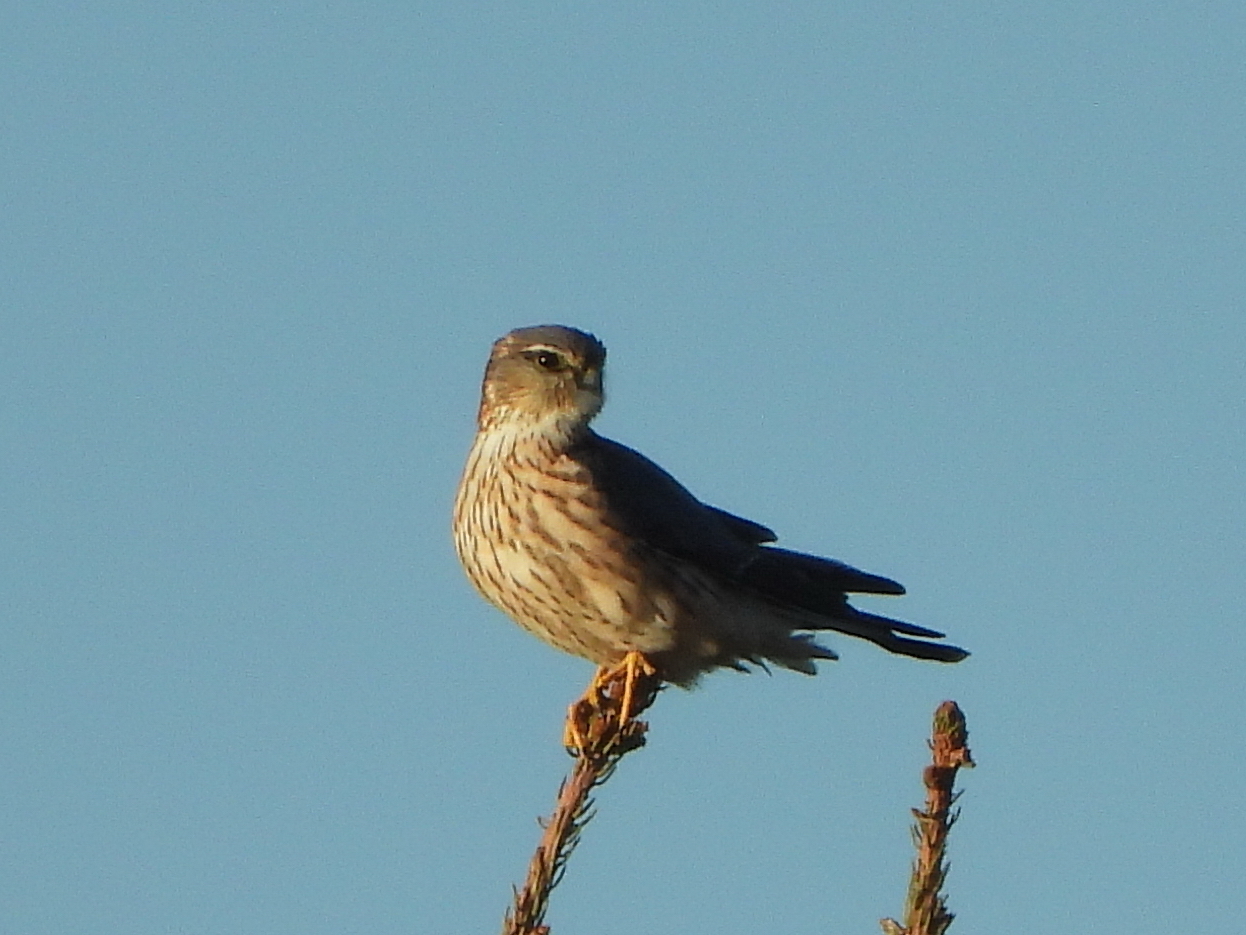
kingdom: Animalia
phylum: Chordata
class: Aves
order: Falconiformes
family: Falconidae
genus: Falco
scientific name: Falco columbarius
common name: Merlin
